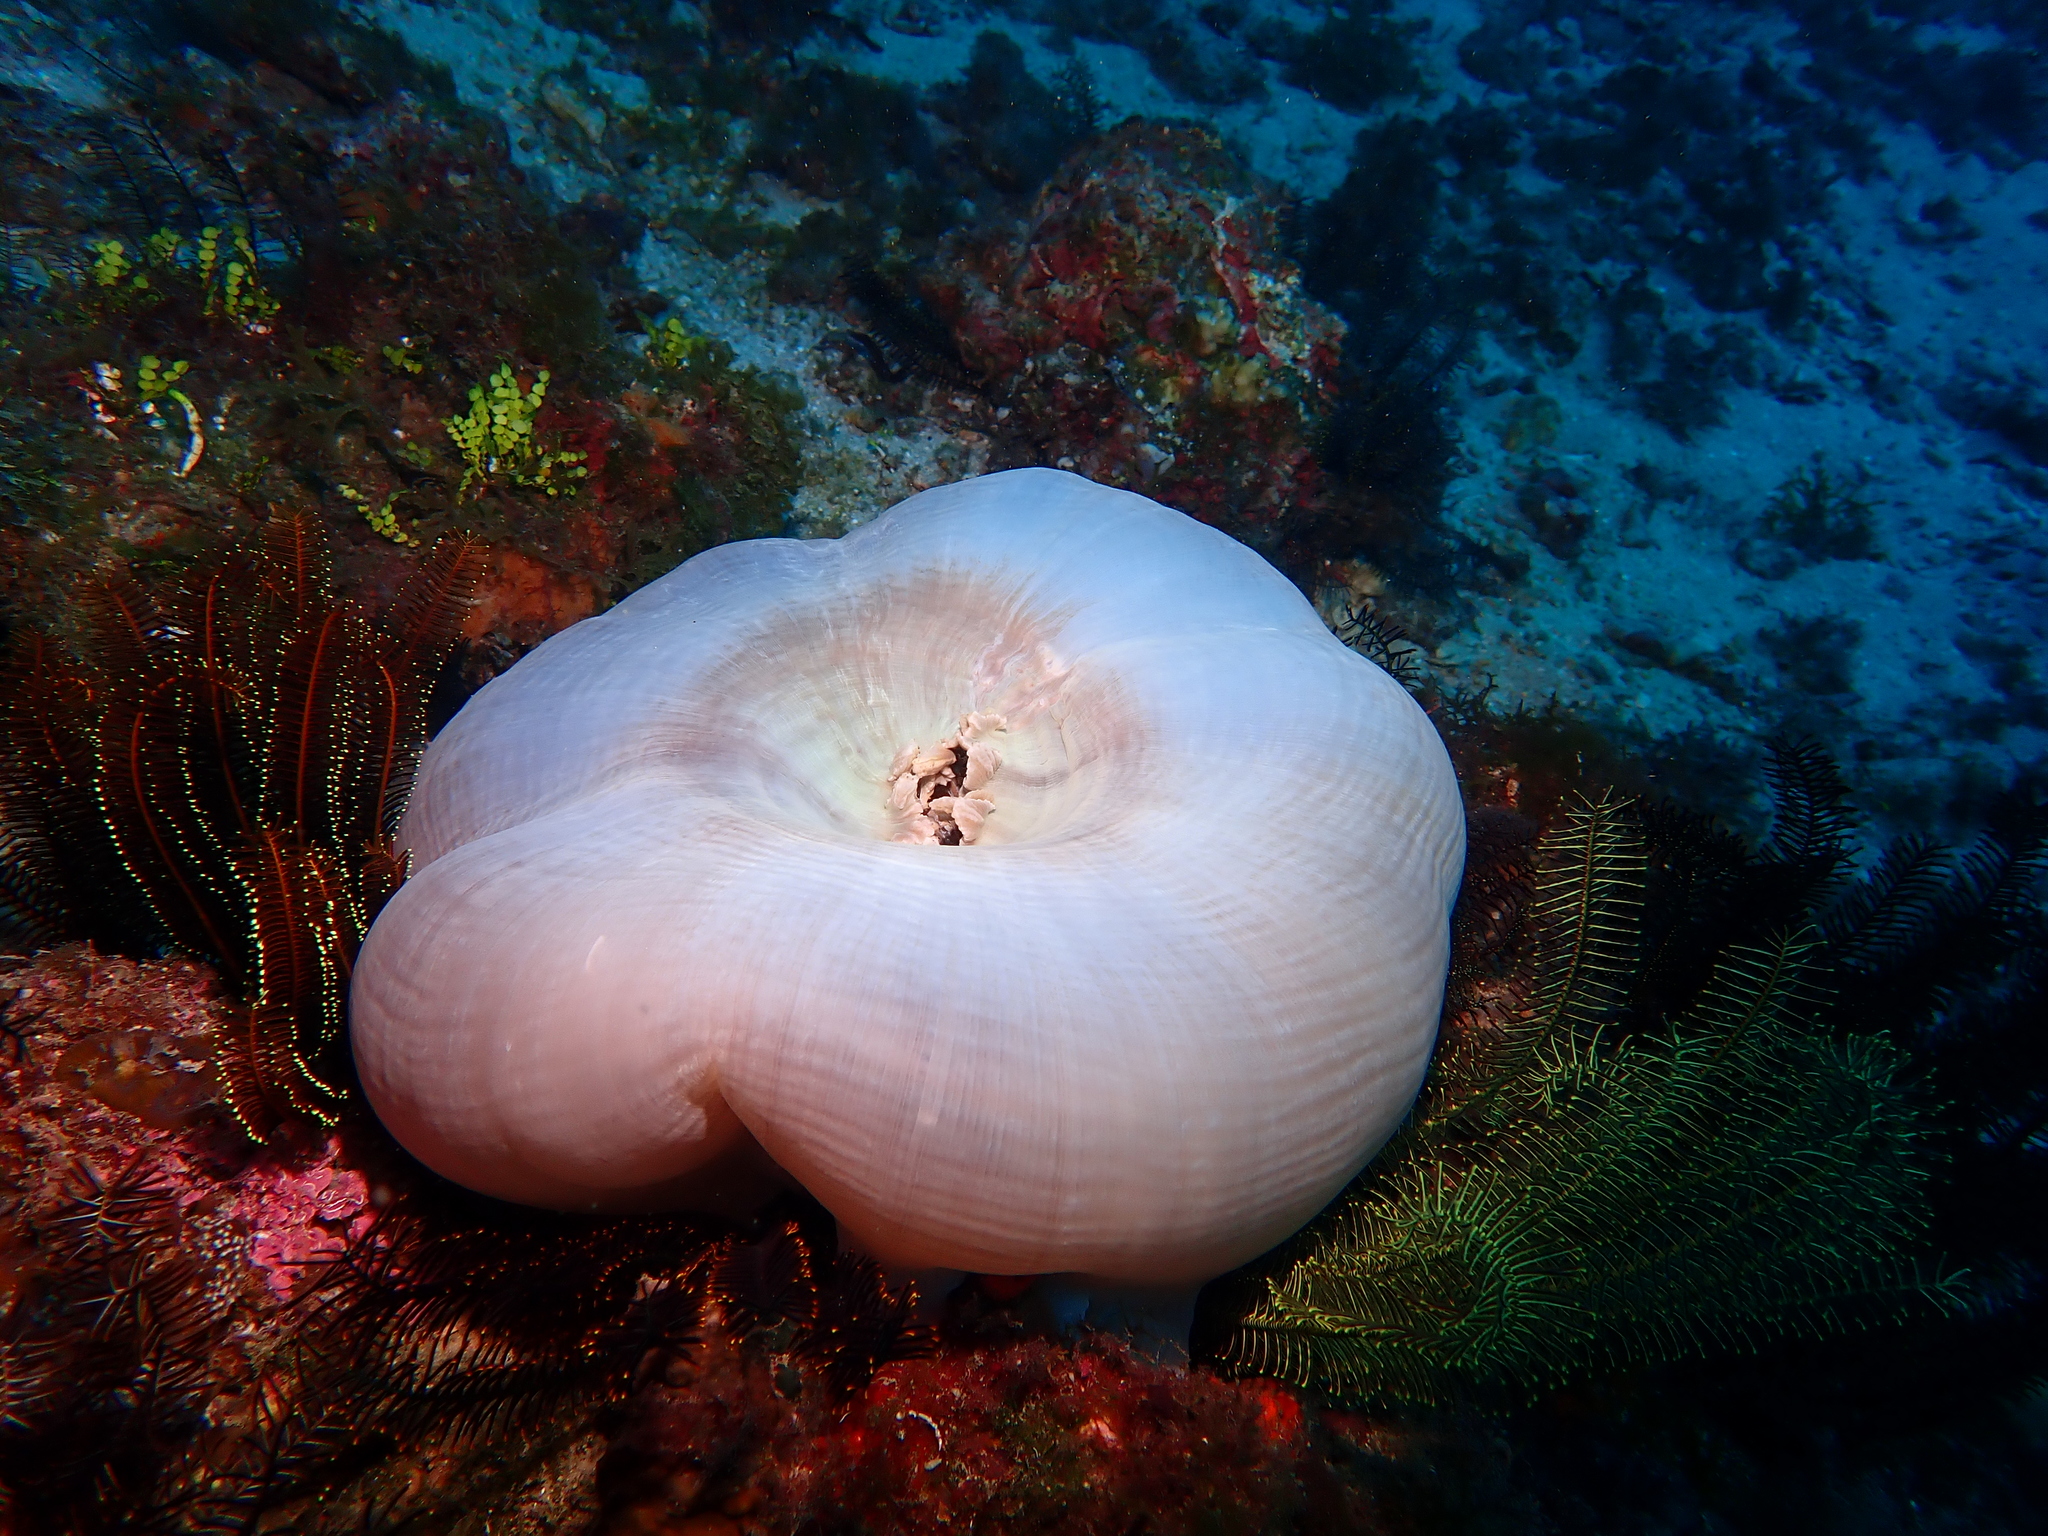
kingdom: Animalia
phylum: Cnidaria
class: Anthozoa
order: Actiniaria
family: Stichodactylidae
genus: Radianthus
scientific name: Radianthus magnifica
